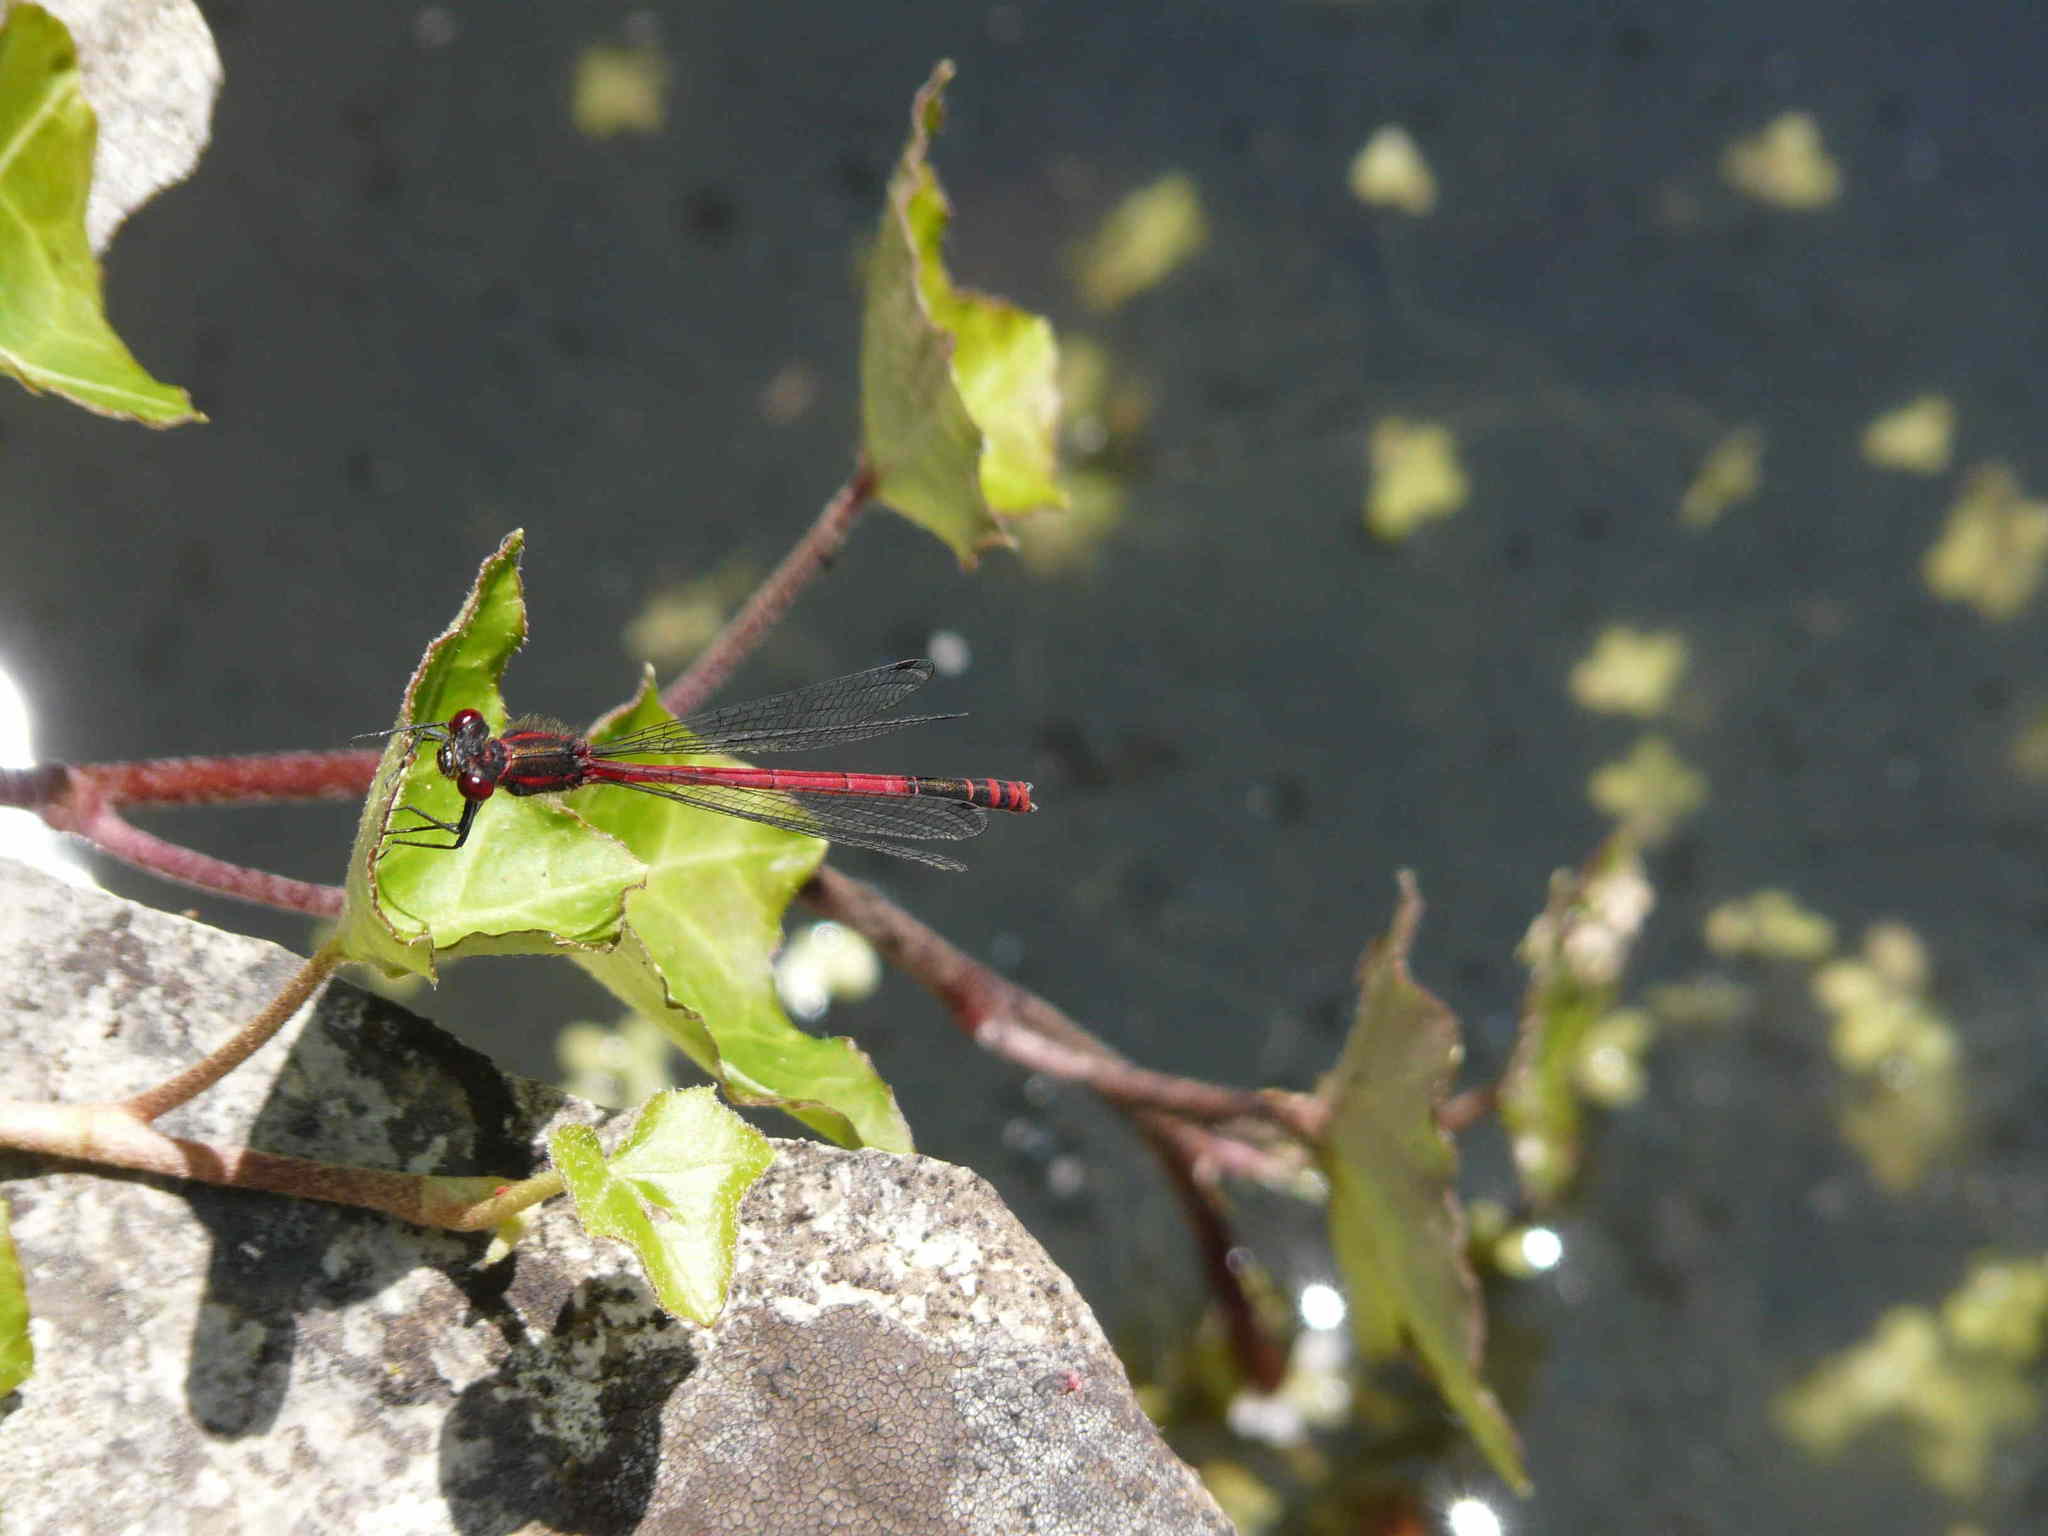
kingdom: Animalia
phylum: Arthropoda
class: Insecta
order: Odonata
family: Coenagrionidae
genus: Pyrrhosoma
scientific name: Pyrrhosoma nymphula
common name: Large red damsel
